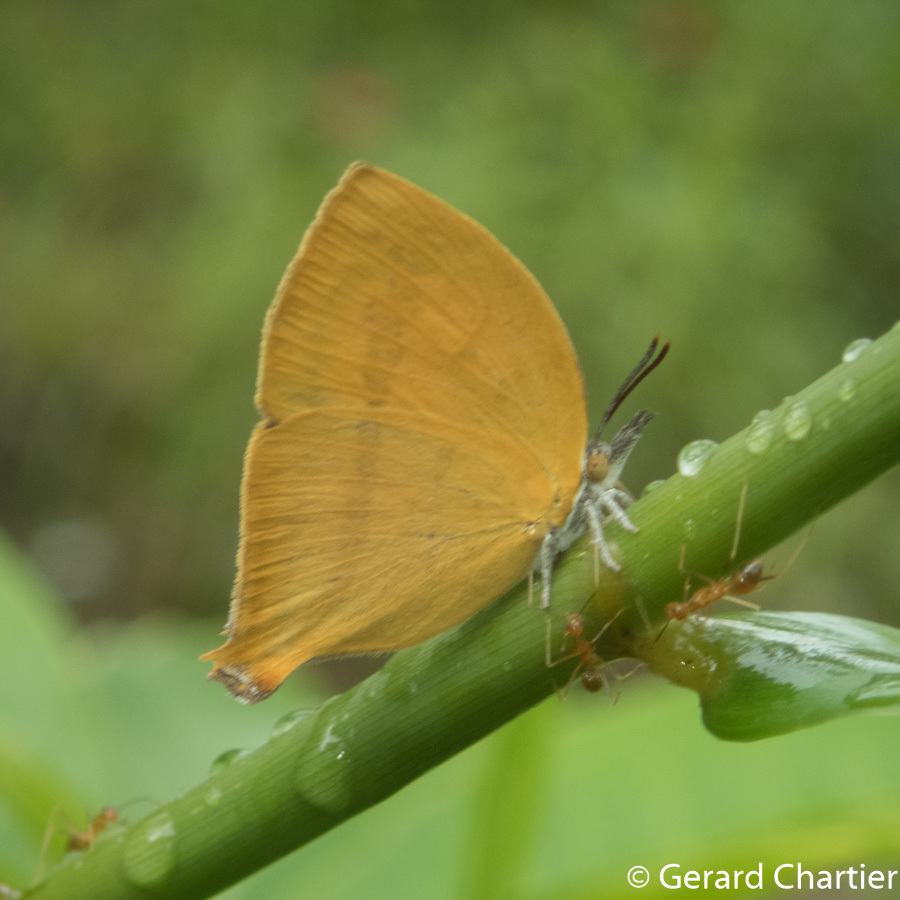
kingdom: Animalia
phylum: Arthropoda
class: Insecta
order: Lepidoptera
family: Lycaenidae
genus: Loxura
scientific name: Loxura atymnus
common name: Common yamfly
